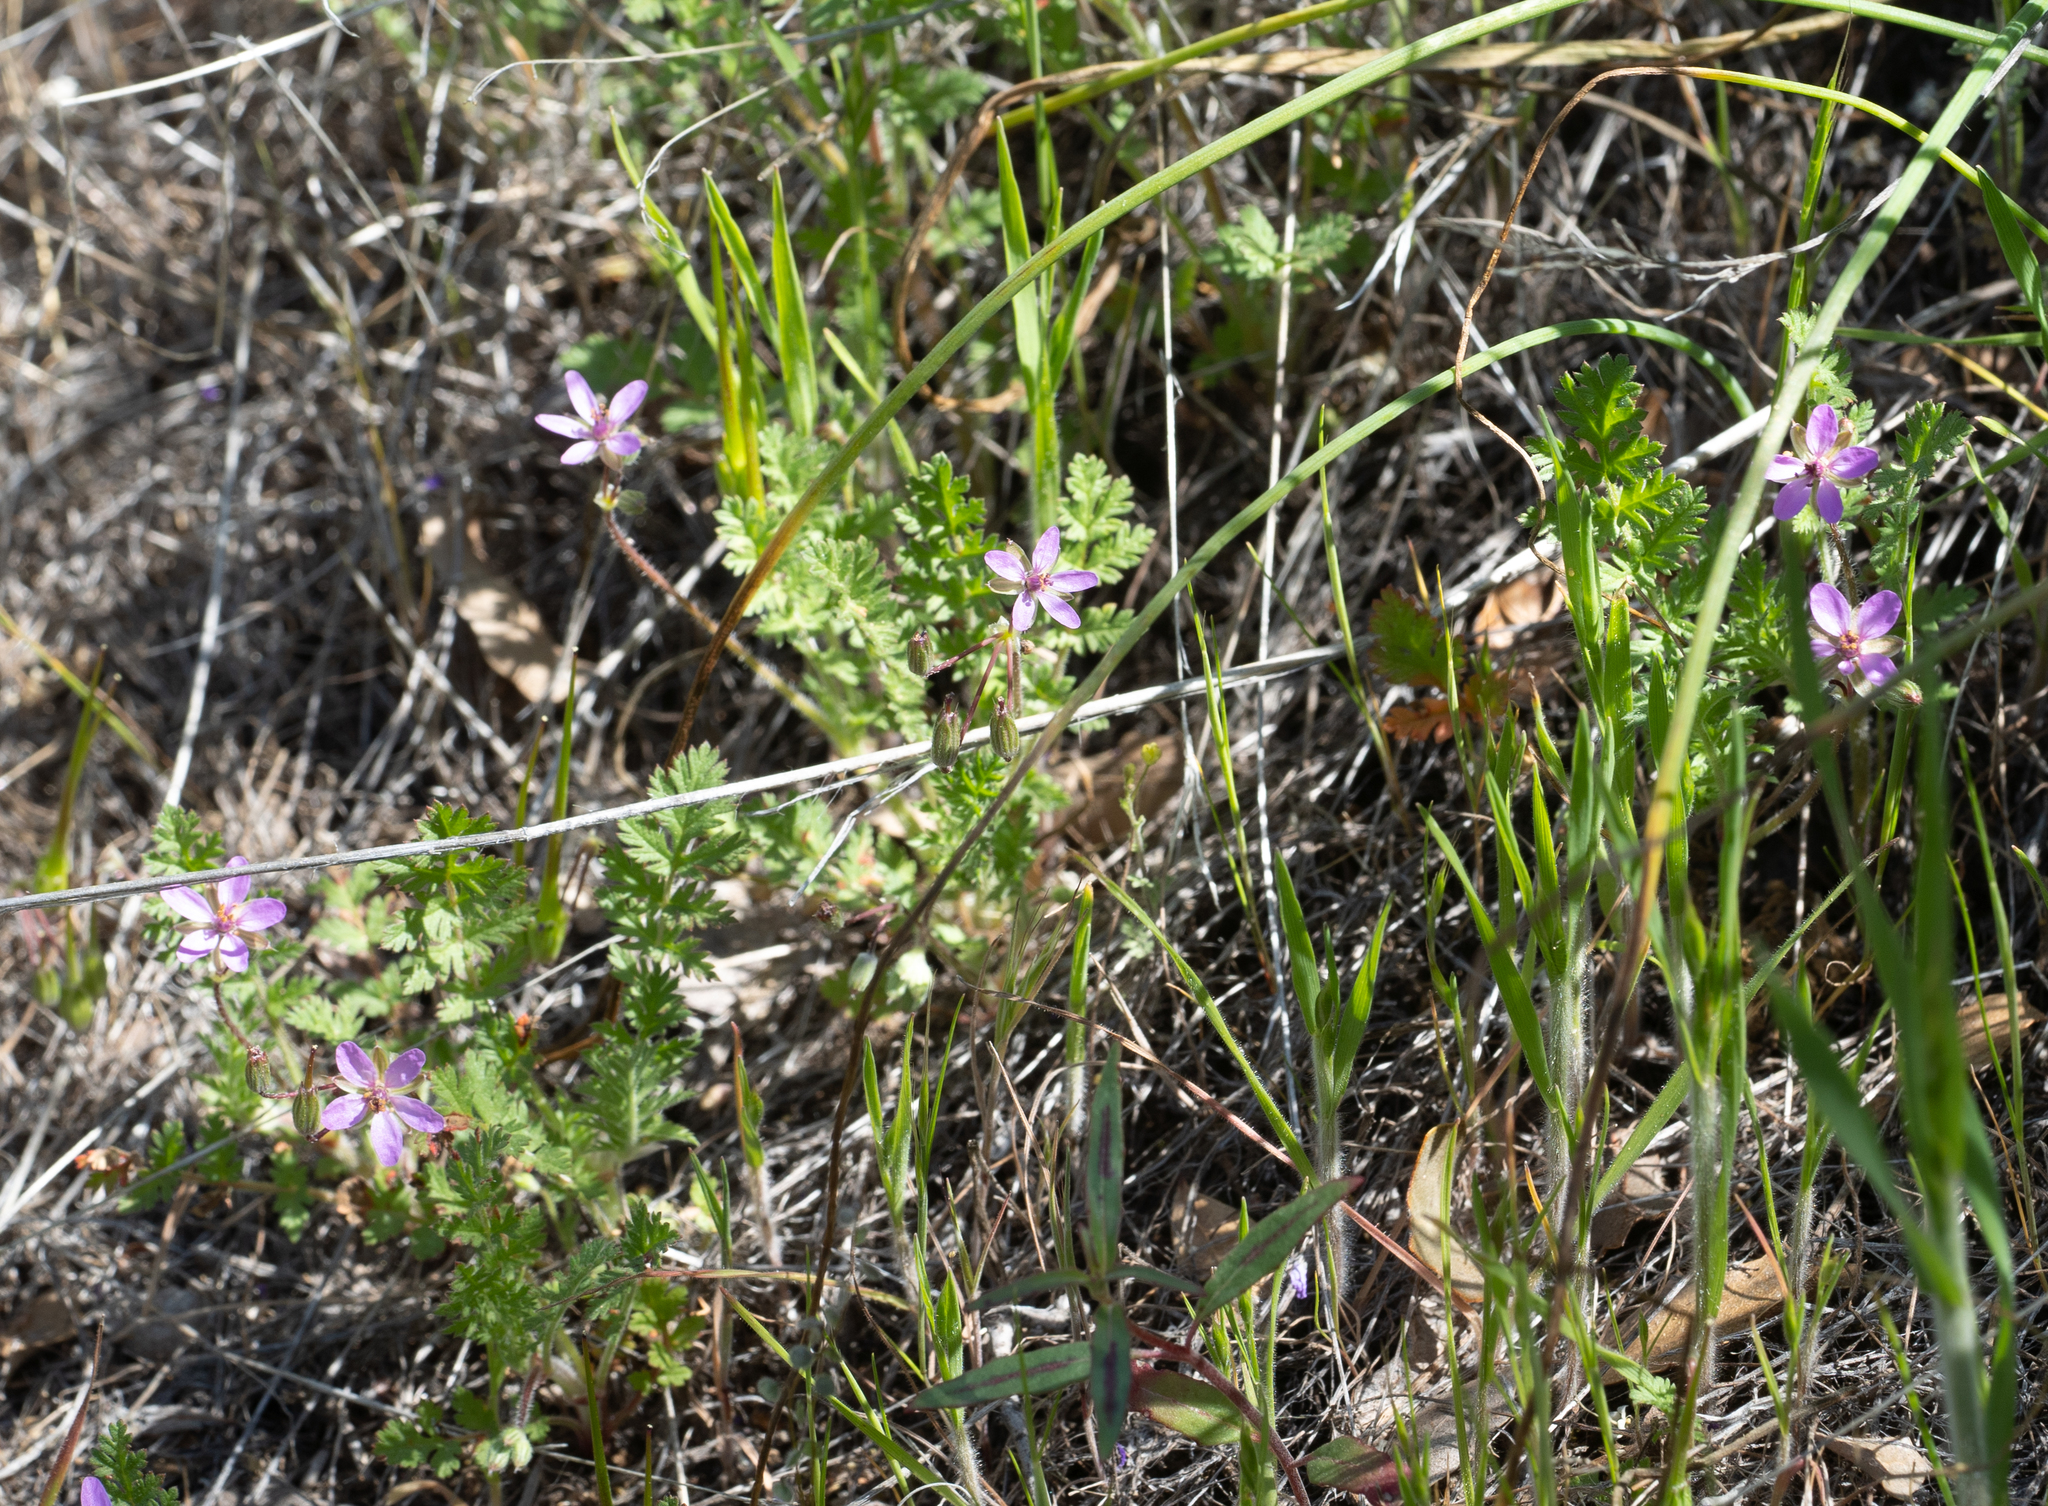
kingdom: Plantae
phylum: Tracheophyta
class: Magnoliopsida
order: Geraniales
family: Geraniaceae
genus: Erodium
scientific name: Erodium cicutarium
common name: Common stork's-bill
